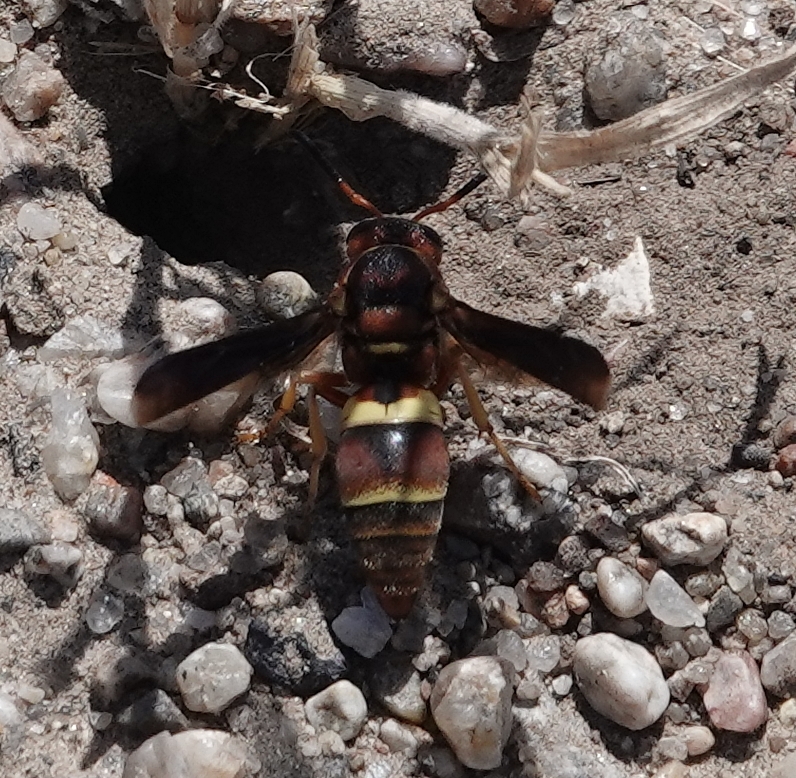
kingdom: Animalia
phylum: Arthropoda
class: Insecta
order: Hymenoptera
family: Eumenidae
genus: Euodynerus
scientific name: Euodynerus crypticus
